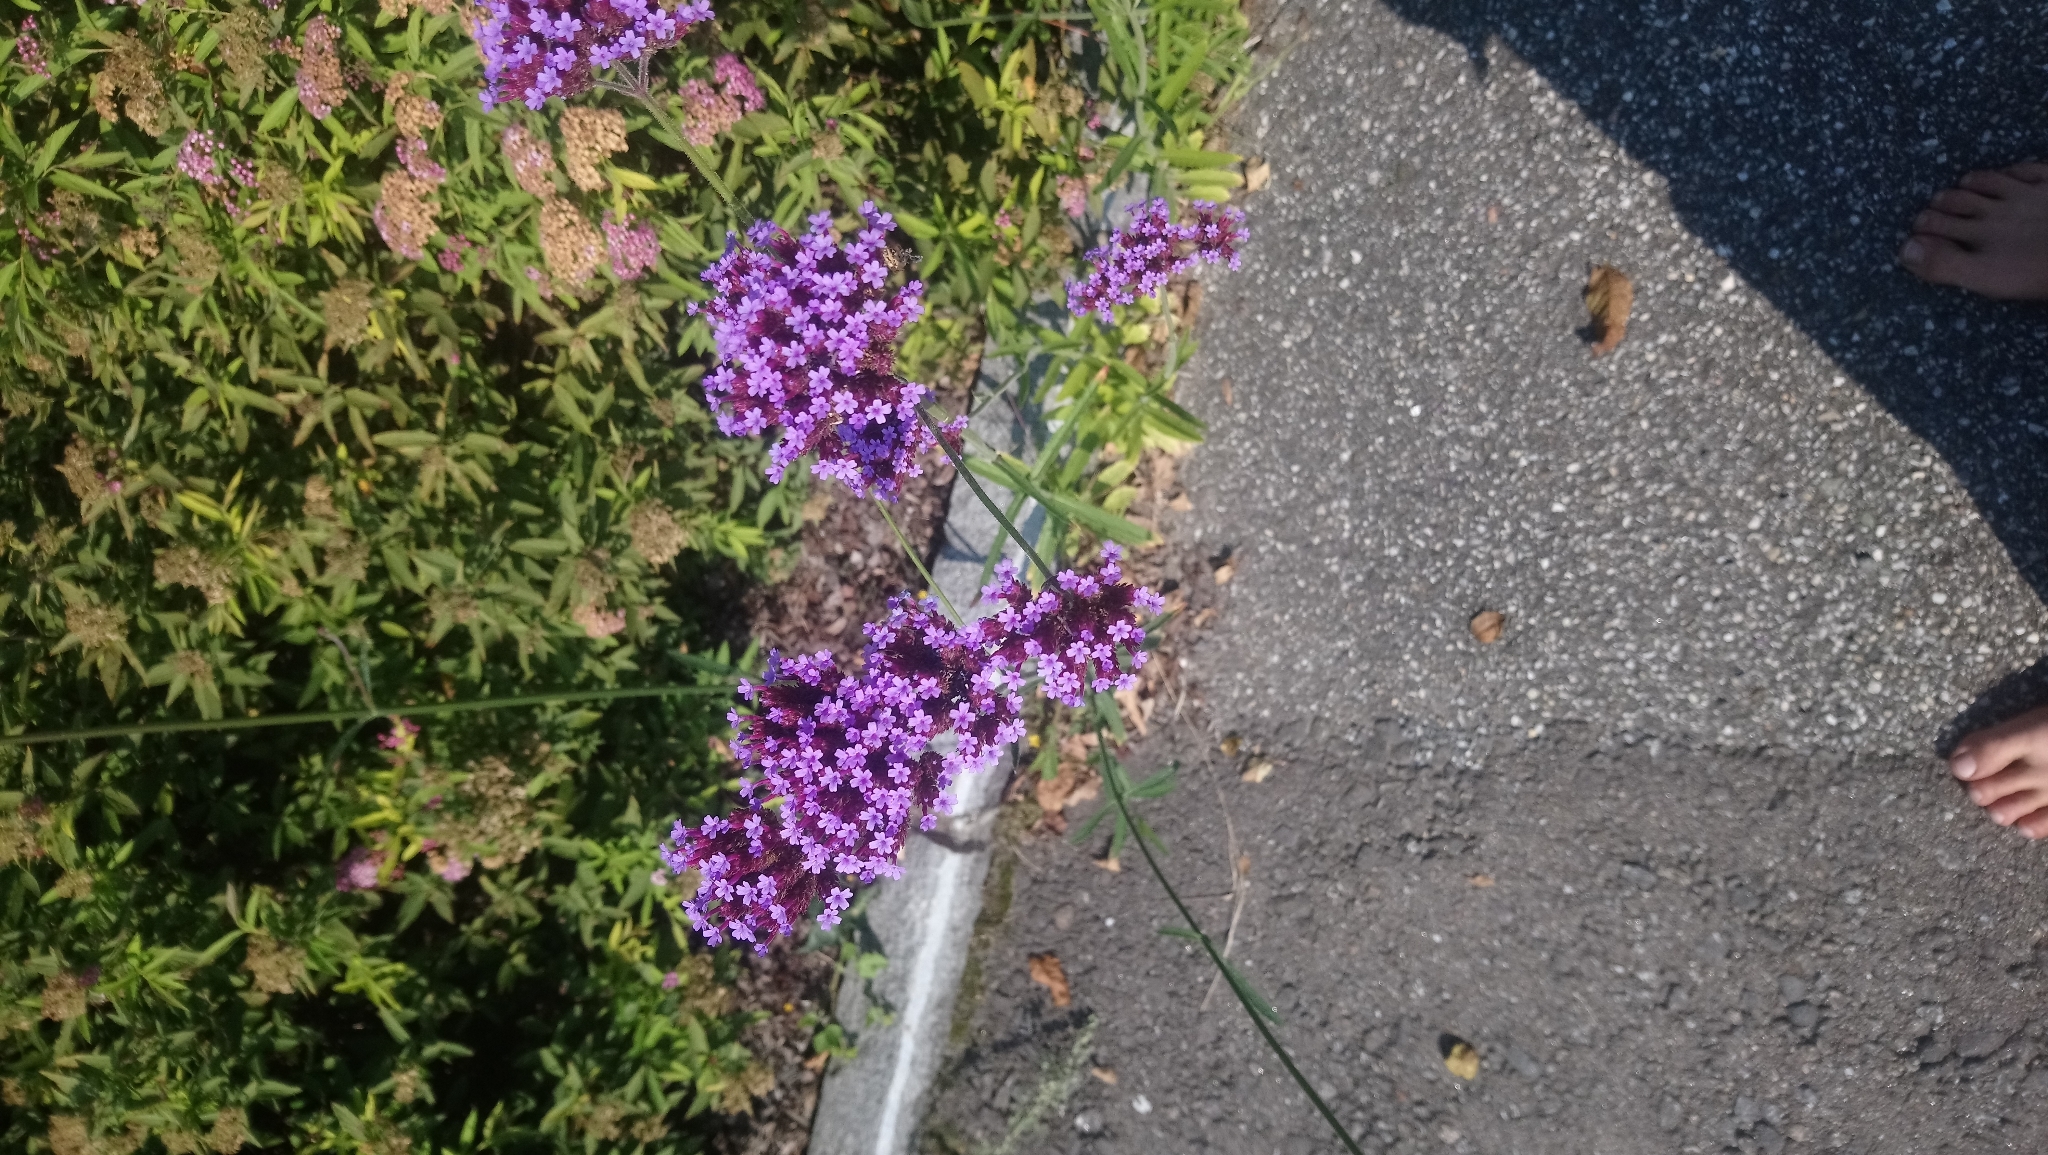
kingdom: Plantae
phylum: Tracheophyta
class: Magnoliopsida
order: Lamiales
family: Verbenaceae
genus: Verbena
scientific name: Verbena bonariensis
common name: Purpletop vervain
